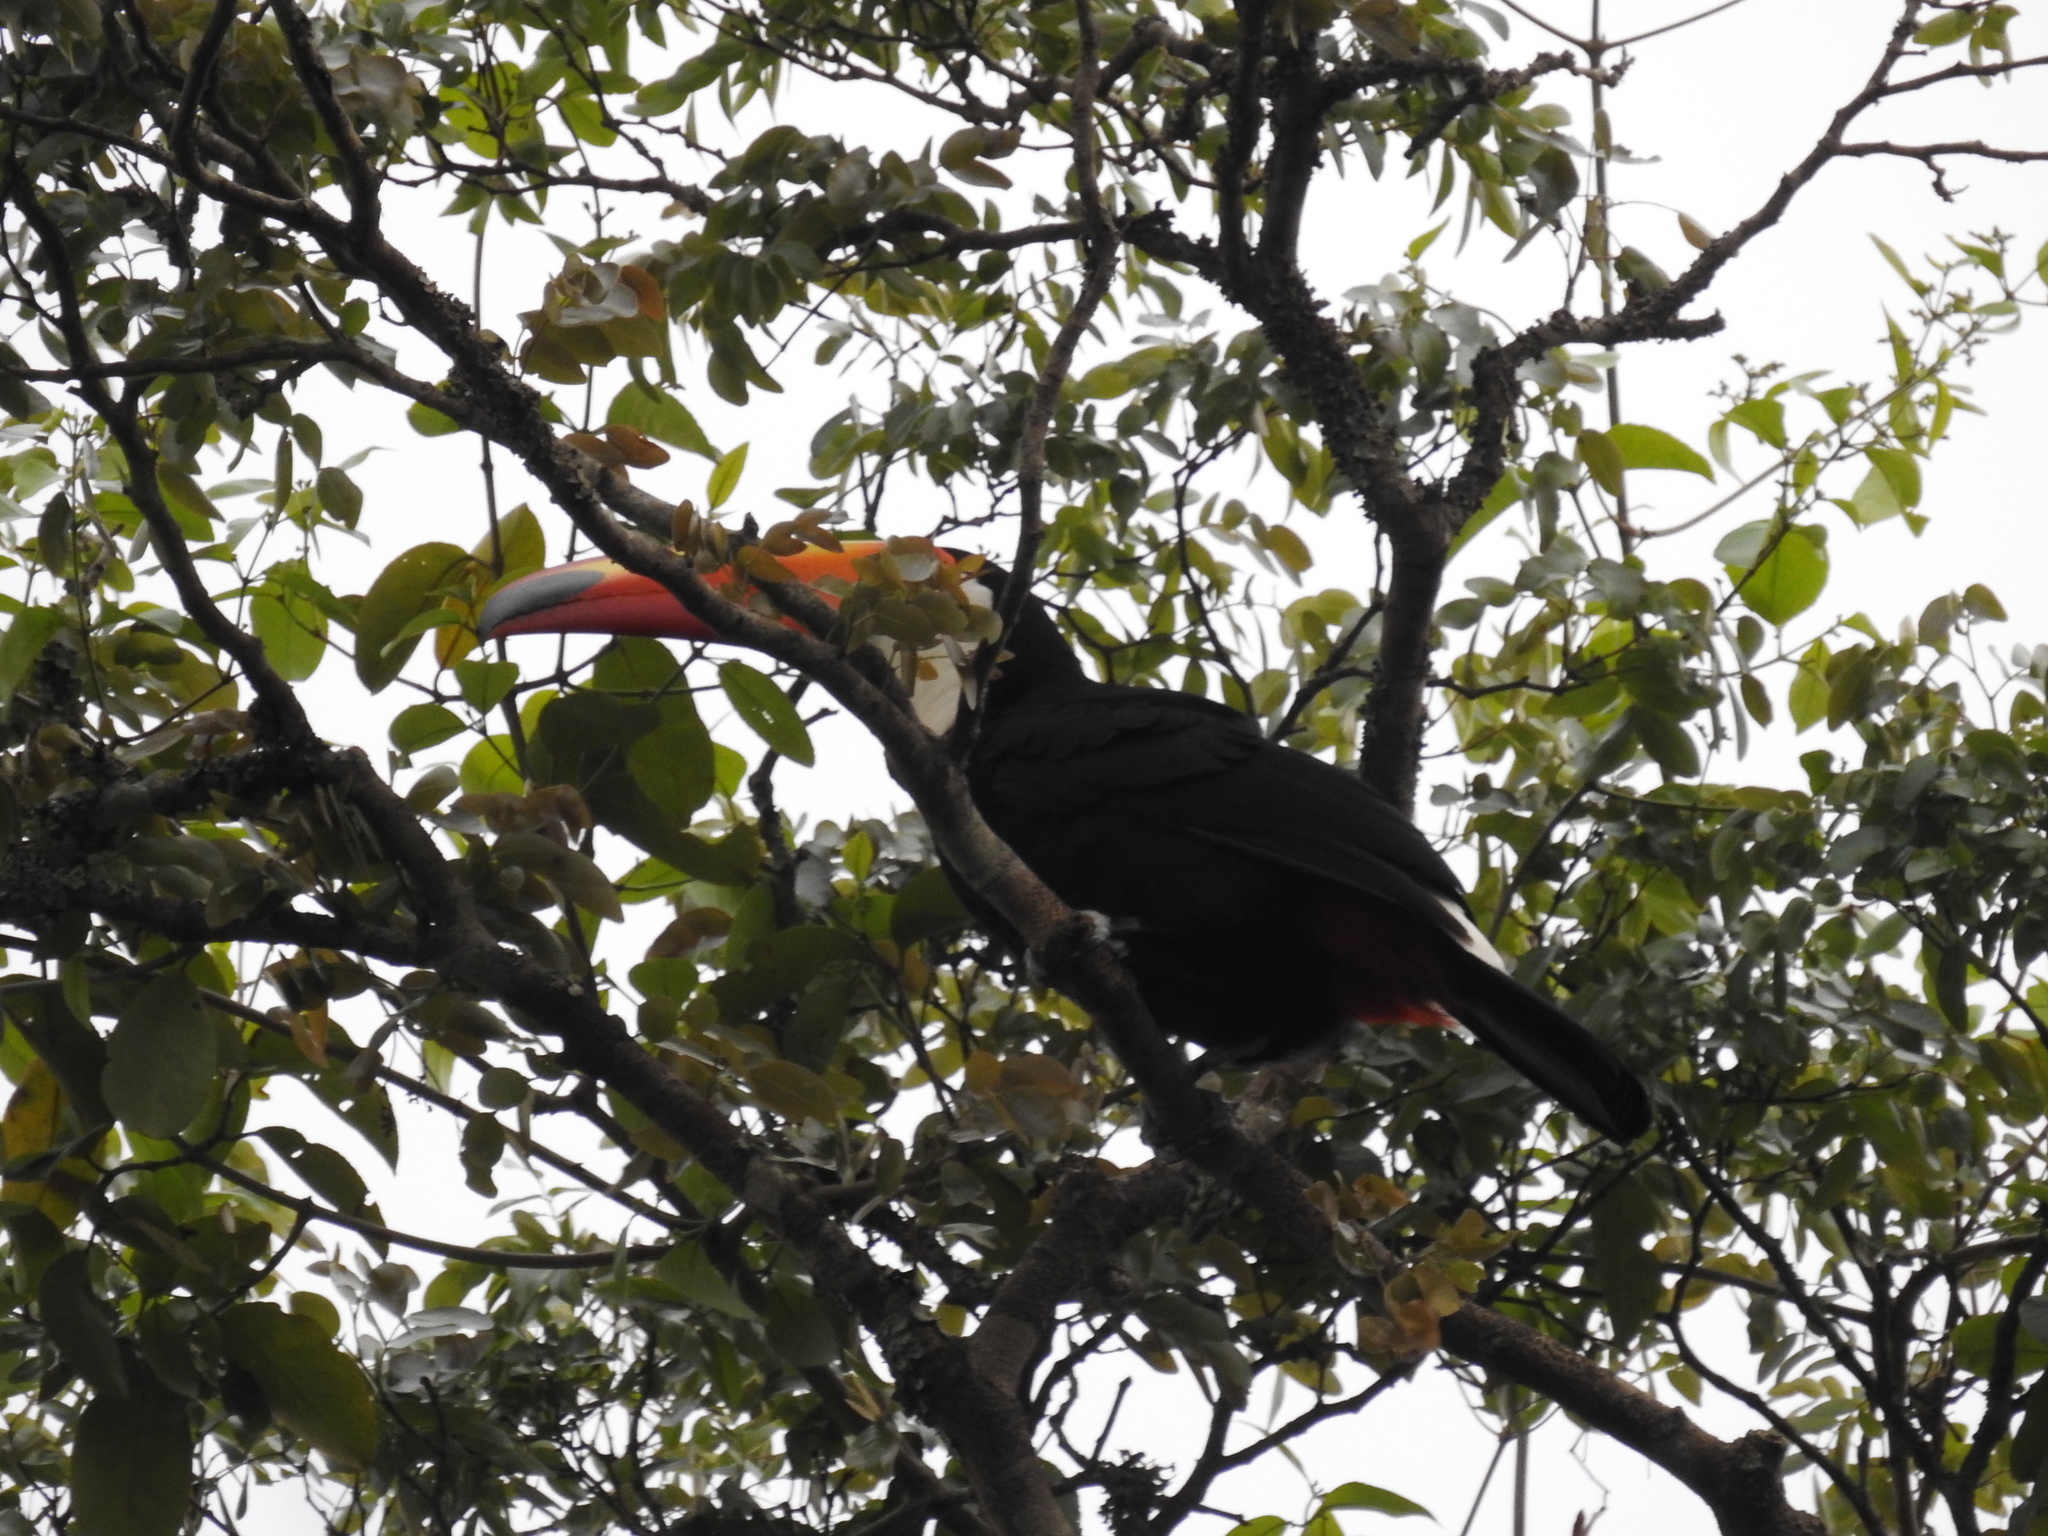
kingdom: Animalia
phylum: Chordata
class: Aves
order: Piciformes
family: Ramphastidae
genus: Ramphastos
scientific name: Ramphastos toco
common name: Toco toucan
